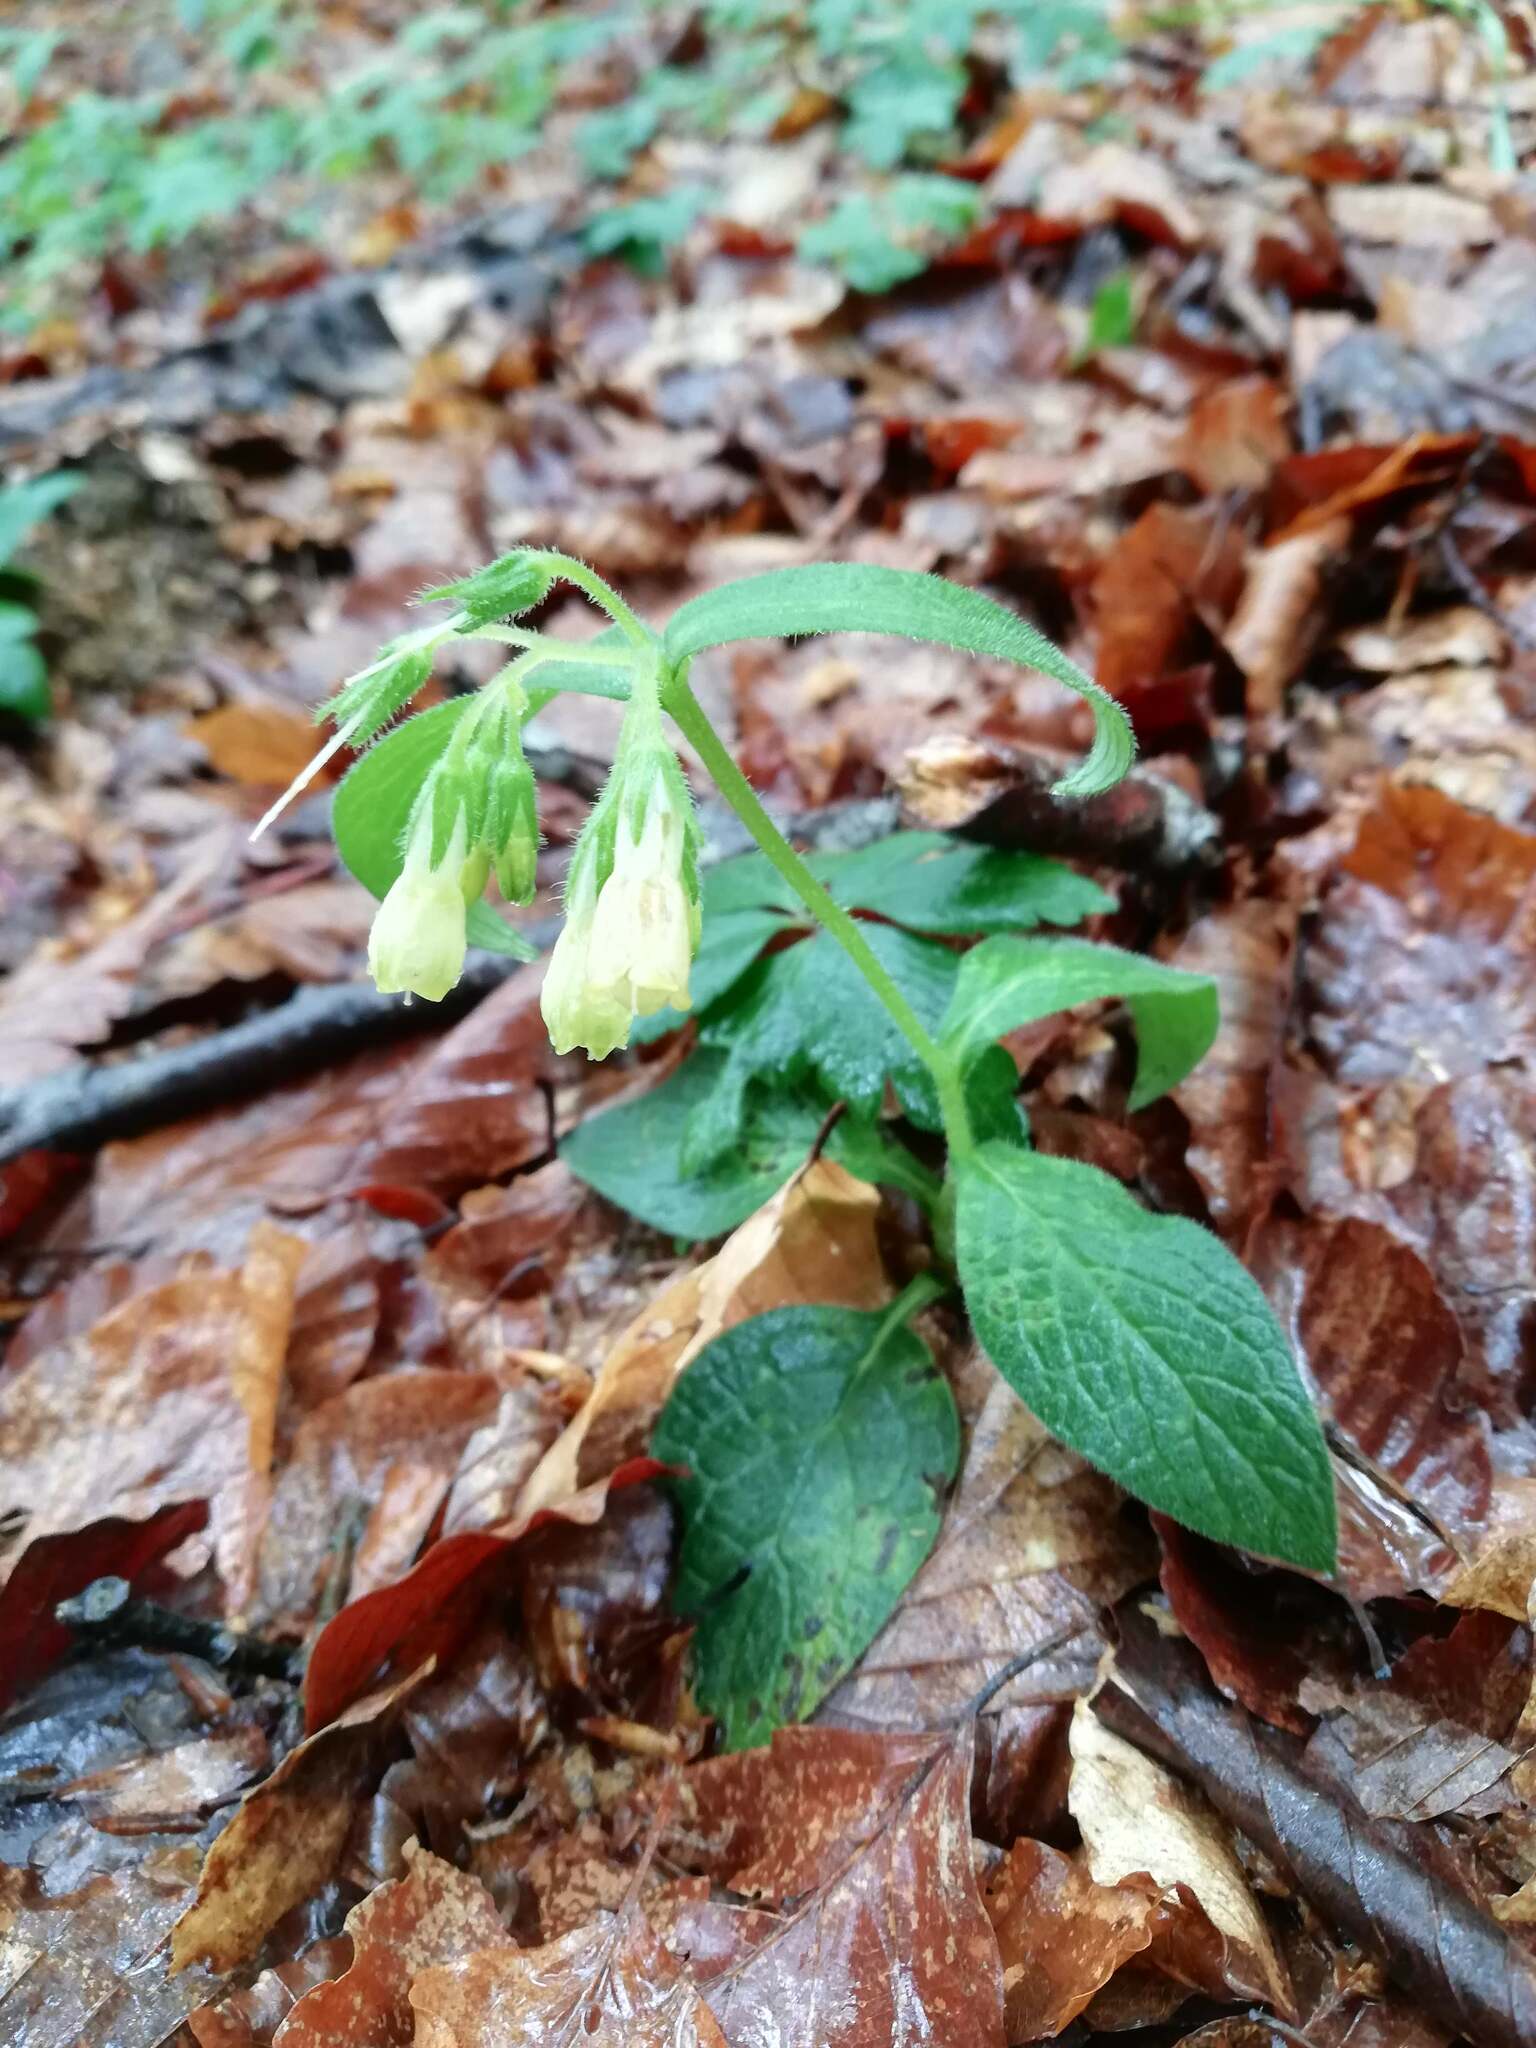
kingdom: Plantae
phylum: Tracheophyta
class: Magnoliopsida
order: Boraginales
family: Boraginaceae
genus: Symphytum
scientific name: Symphytum tuberosum
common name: Tuberous comfrey
